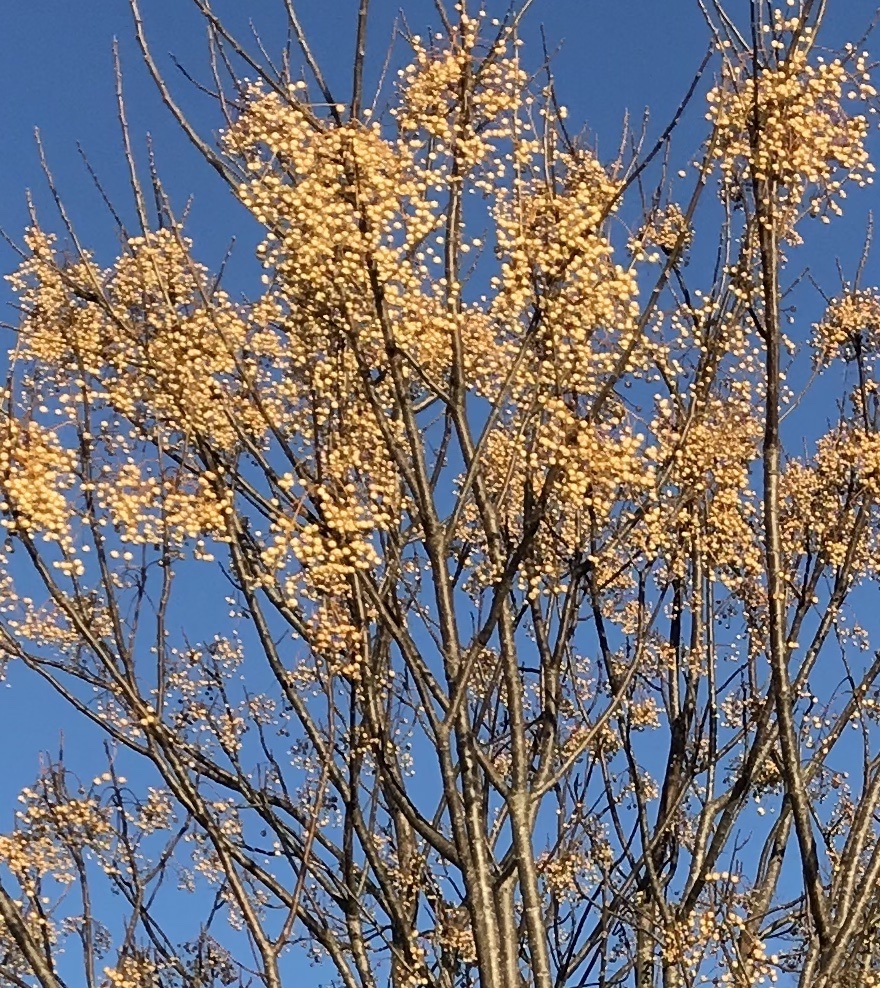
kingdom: Plantae
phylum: Tracheophyta
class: Magnoliopsida
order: Sapindales
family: Meliaceae
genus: Melia
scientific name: Melia azedarach
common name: Chinaberrytree
